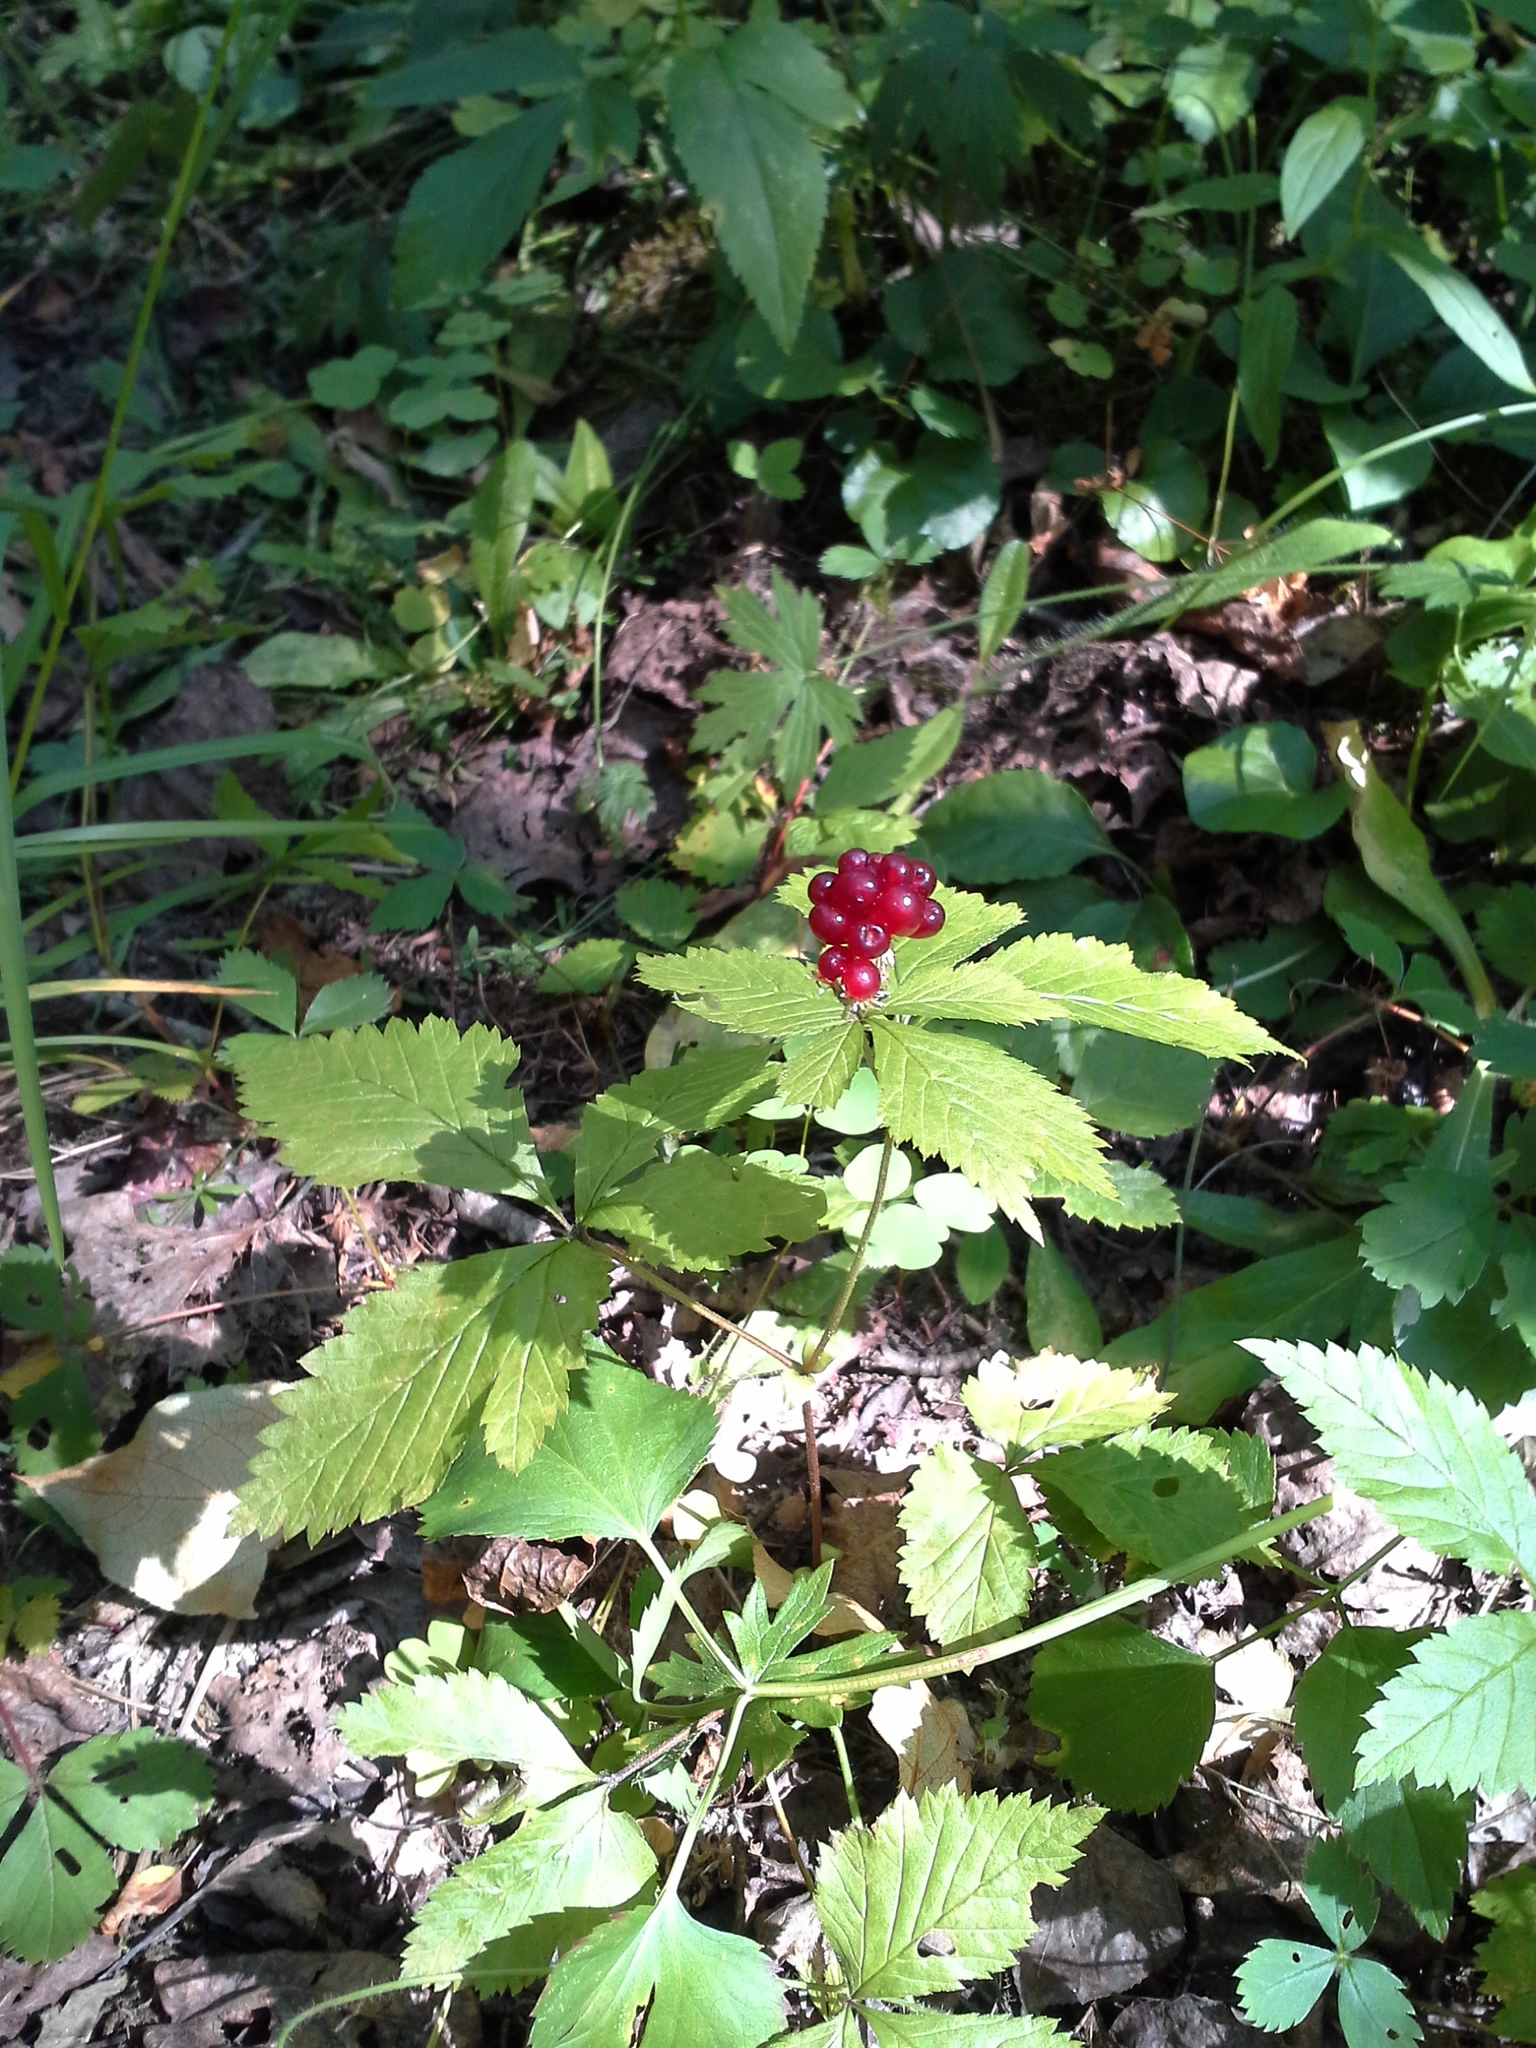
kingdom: Plantae
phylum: Tracheophyta
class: Magnoliopsida
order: Rosales
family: Rosaceae
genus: Rubus
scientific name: Rubus pubescens
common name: Dwarf raspberry
